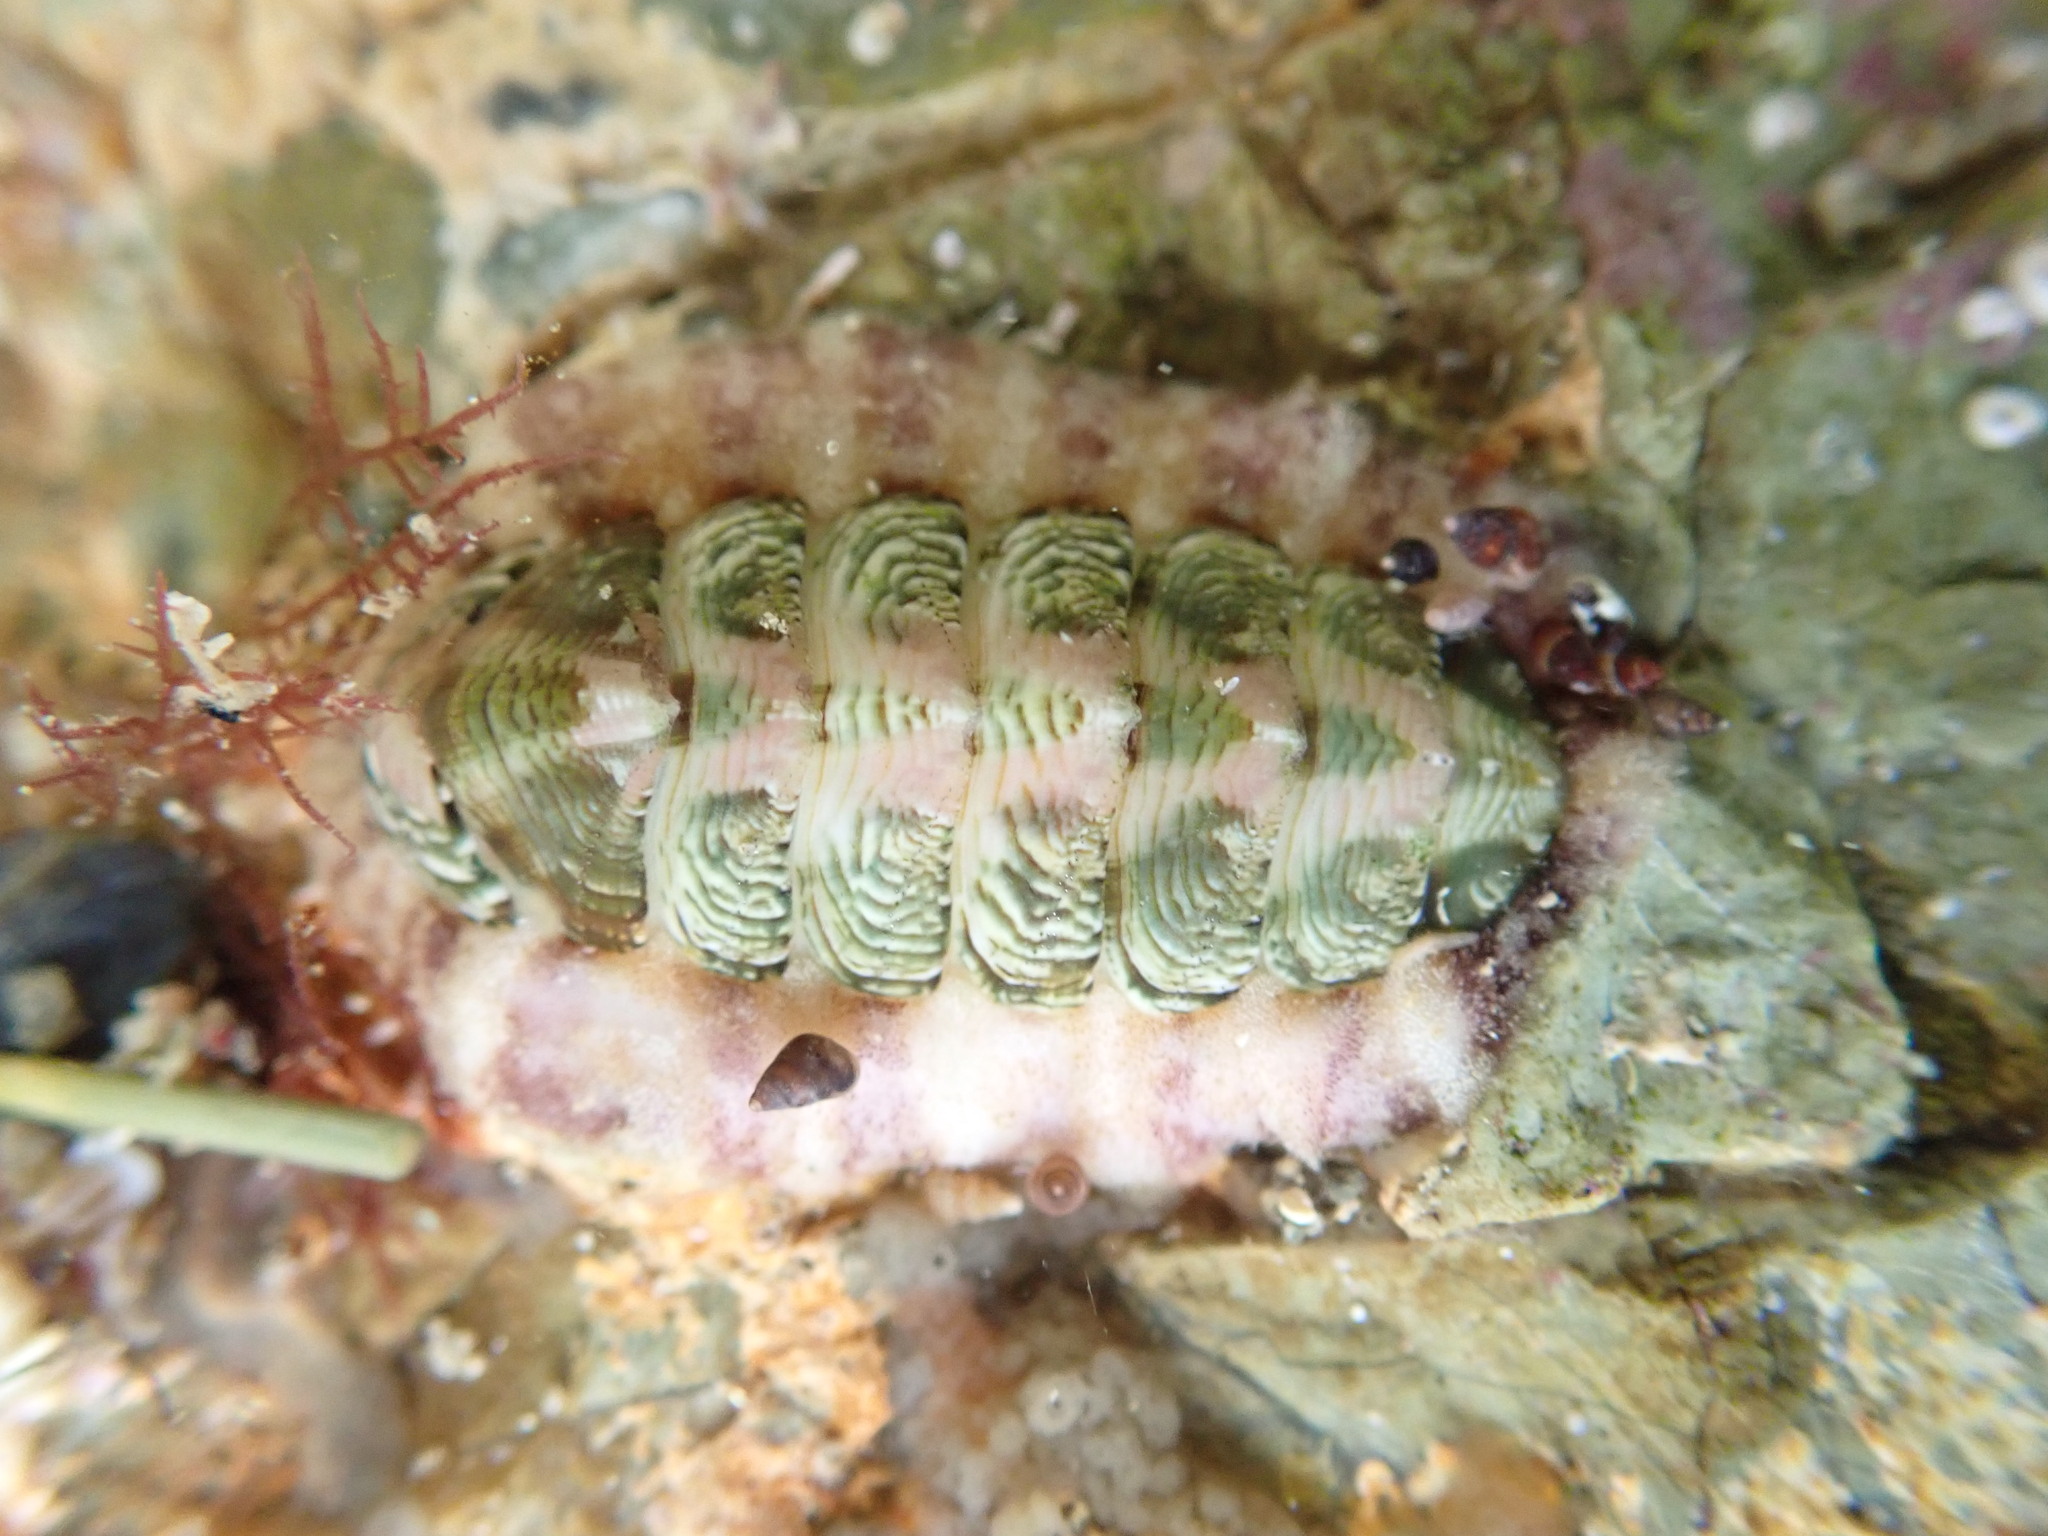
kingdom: Animalia
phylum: Mollusca
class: Polyplacophora
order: Chitonida
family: Chitonidae
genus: Onithochiton
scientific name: Onithochiton neglectus
